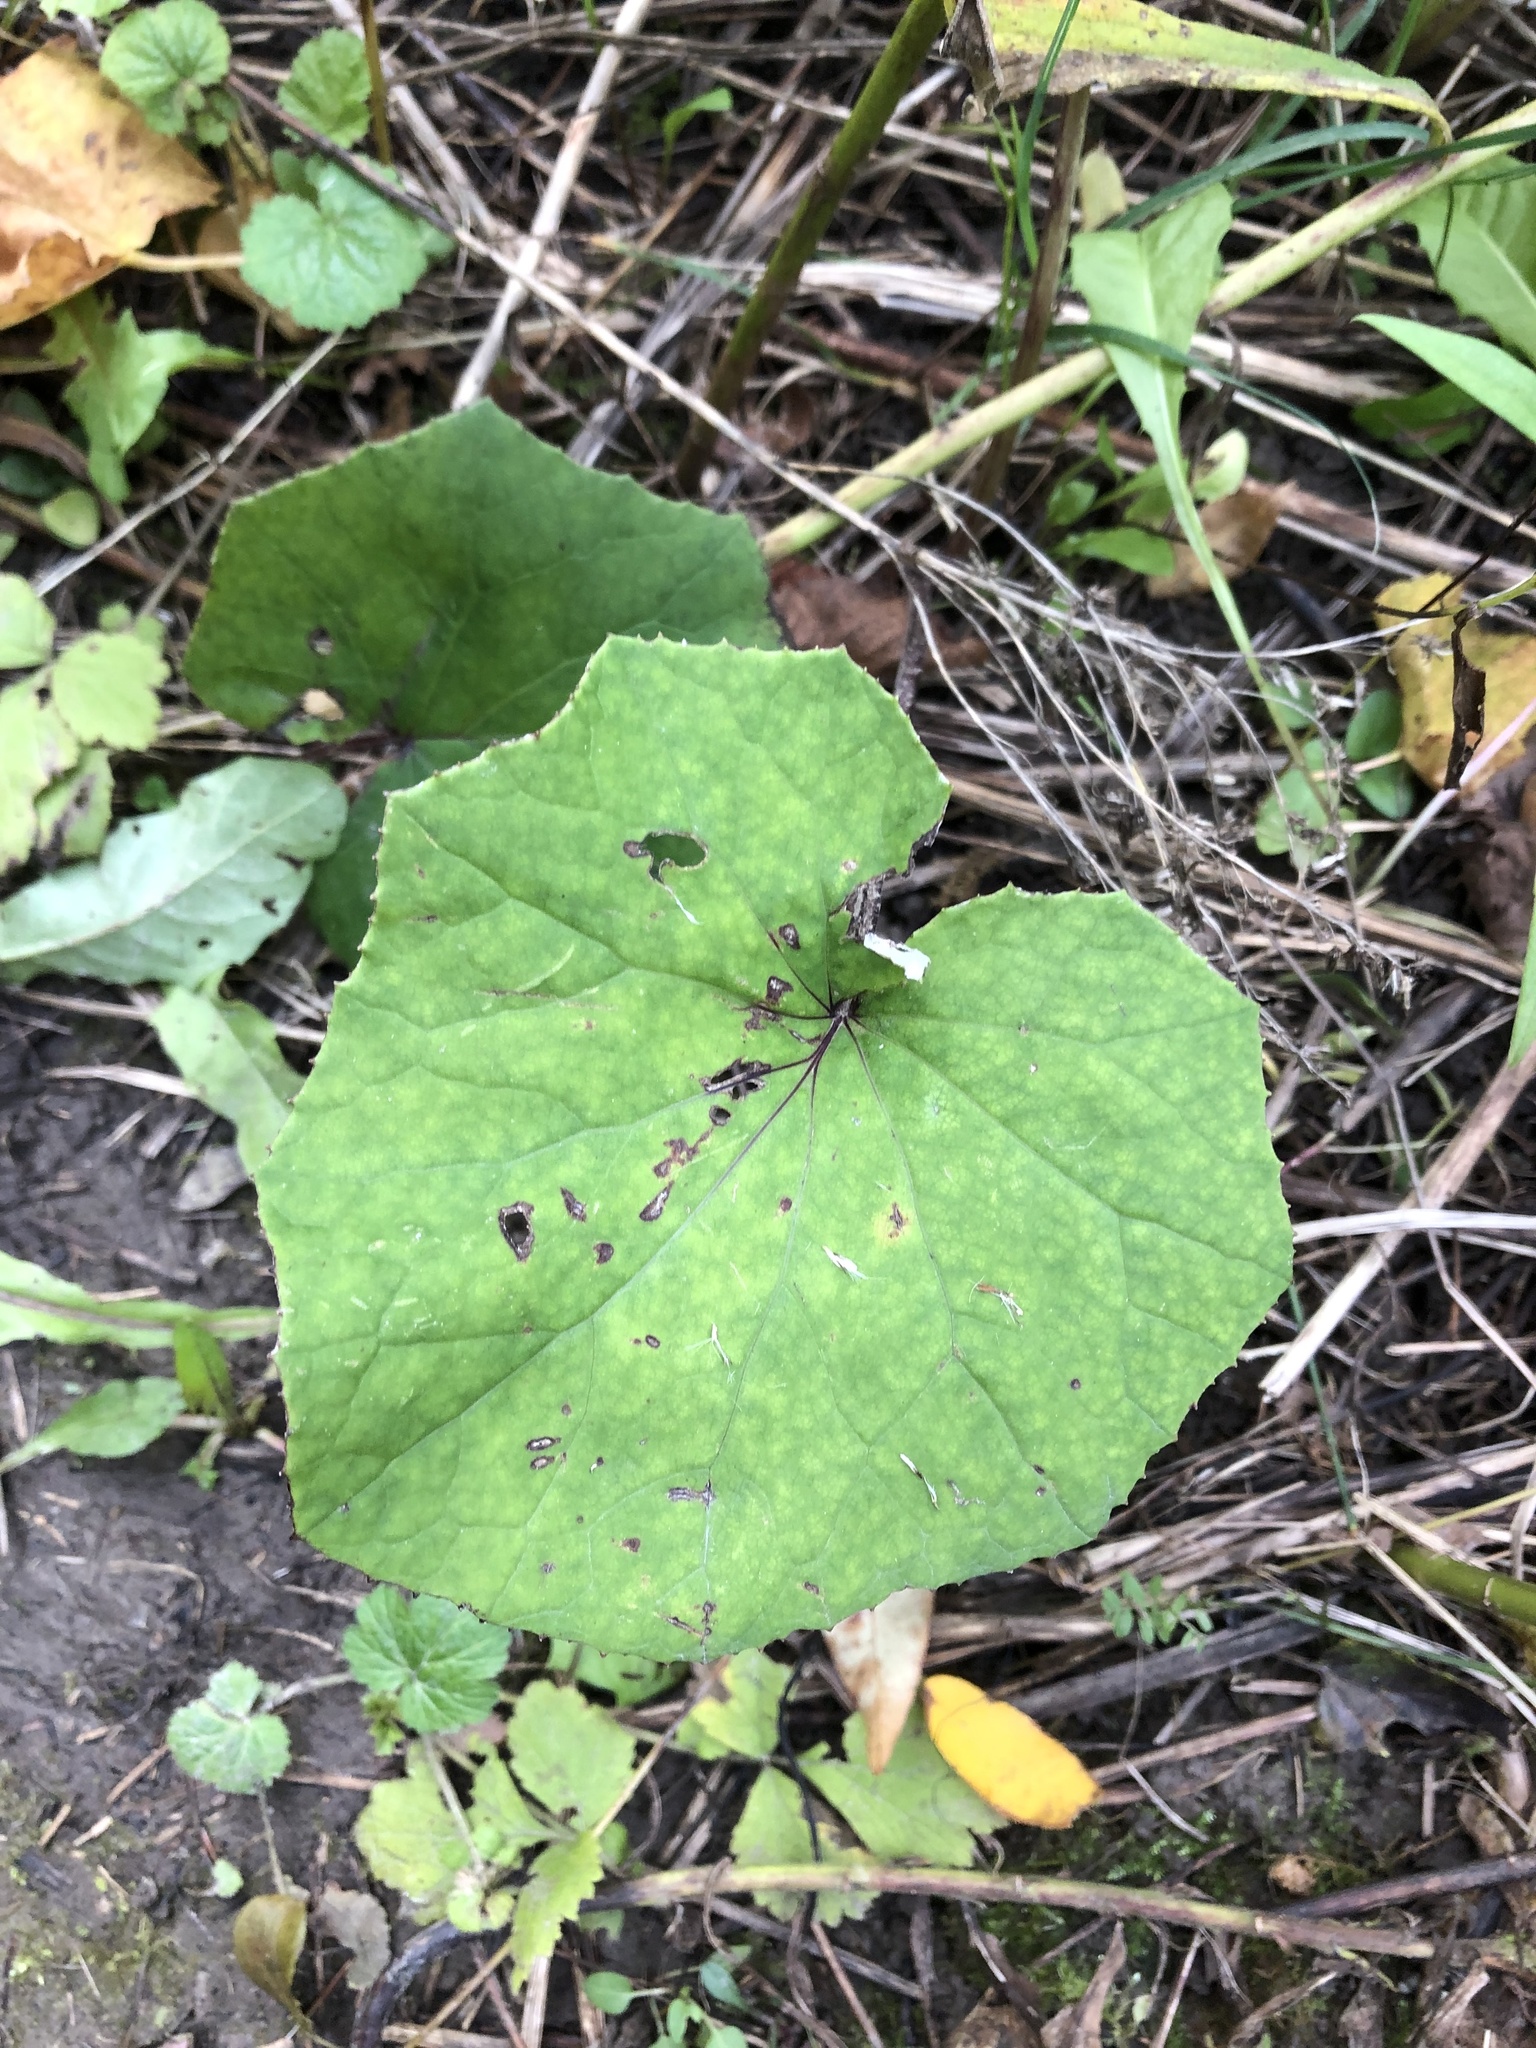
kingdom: Plantae
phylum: Tracheophyta
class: Magnoliopsida
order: Asterales
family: Asteraceae
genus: Tussilago
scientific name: Tussilago farfara
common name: Coltsfoot
